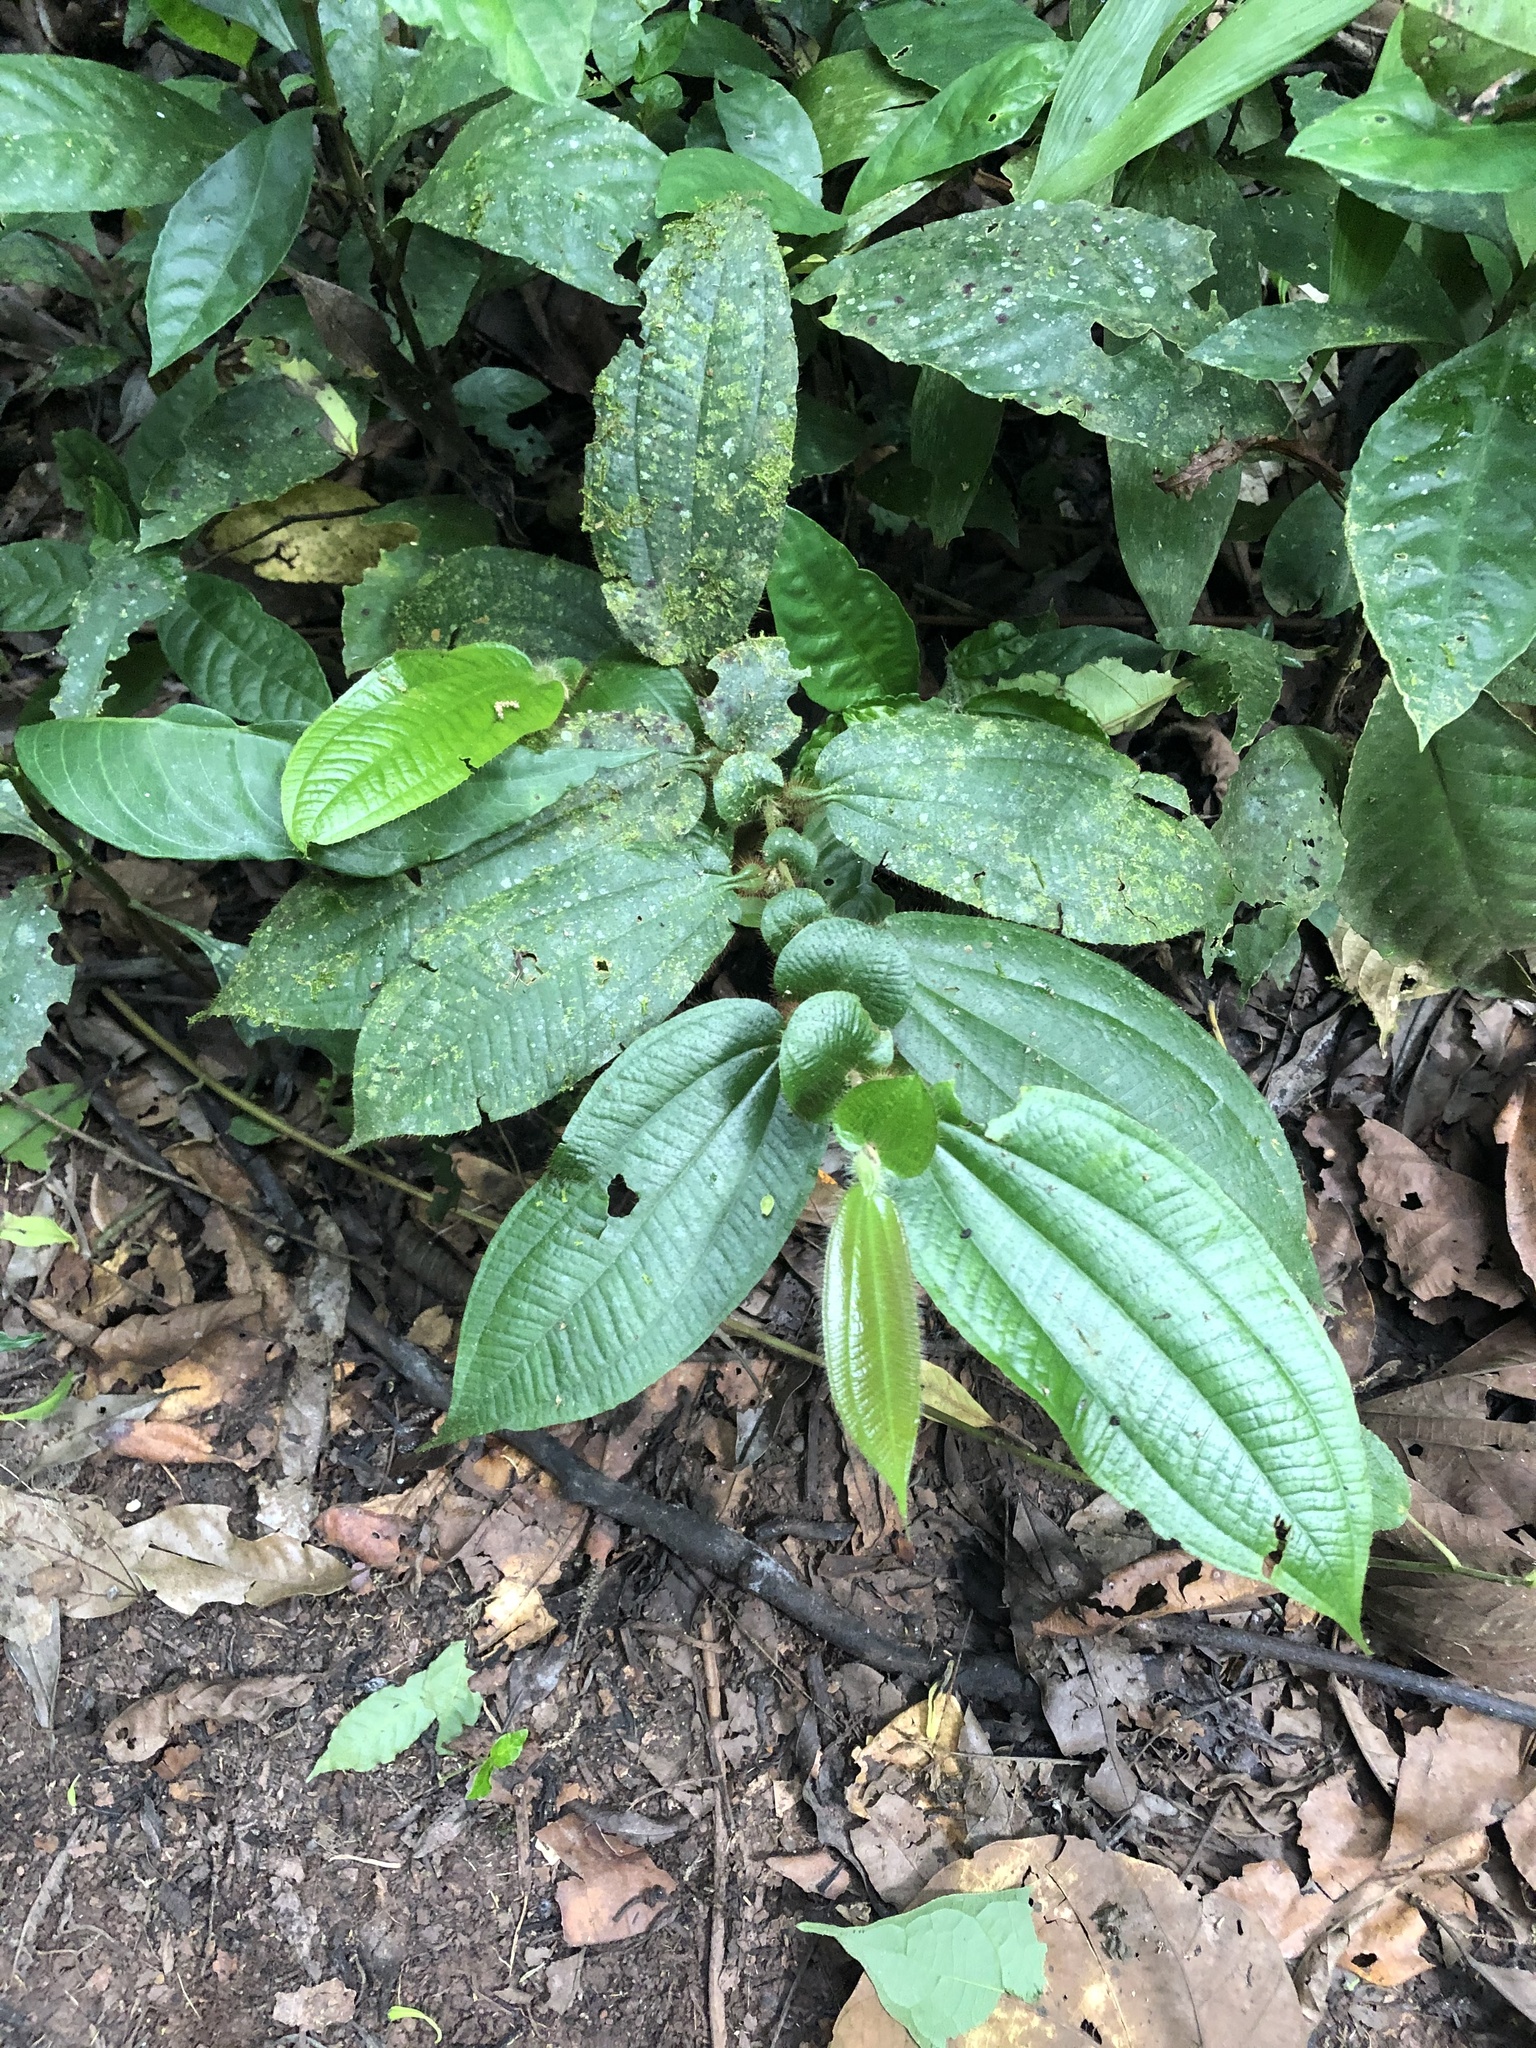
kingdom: Plantae
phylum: Tracheophyta
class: Magnoliopsida
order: Myrtales
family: Melastomataceae
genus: Miconia
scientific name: Miconia formicoheterophylla
